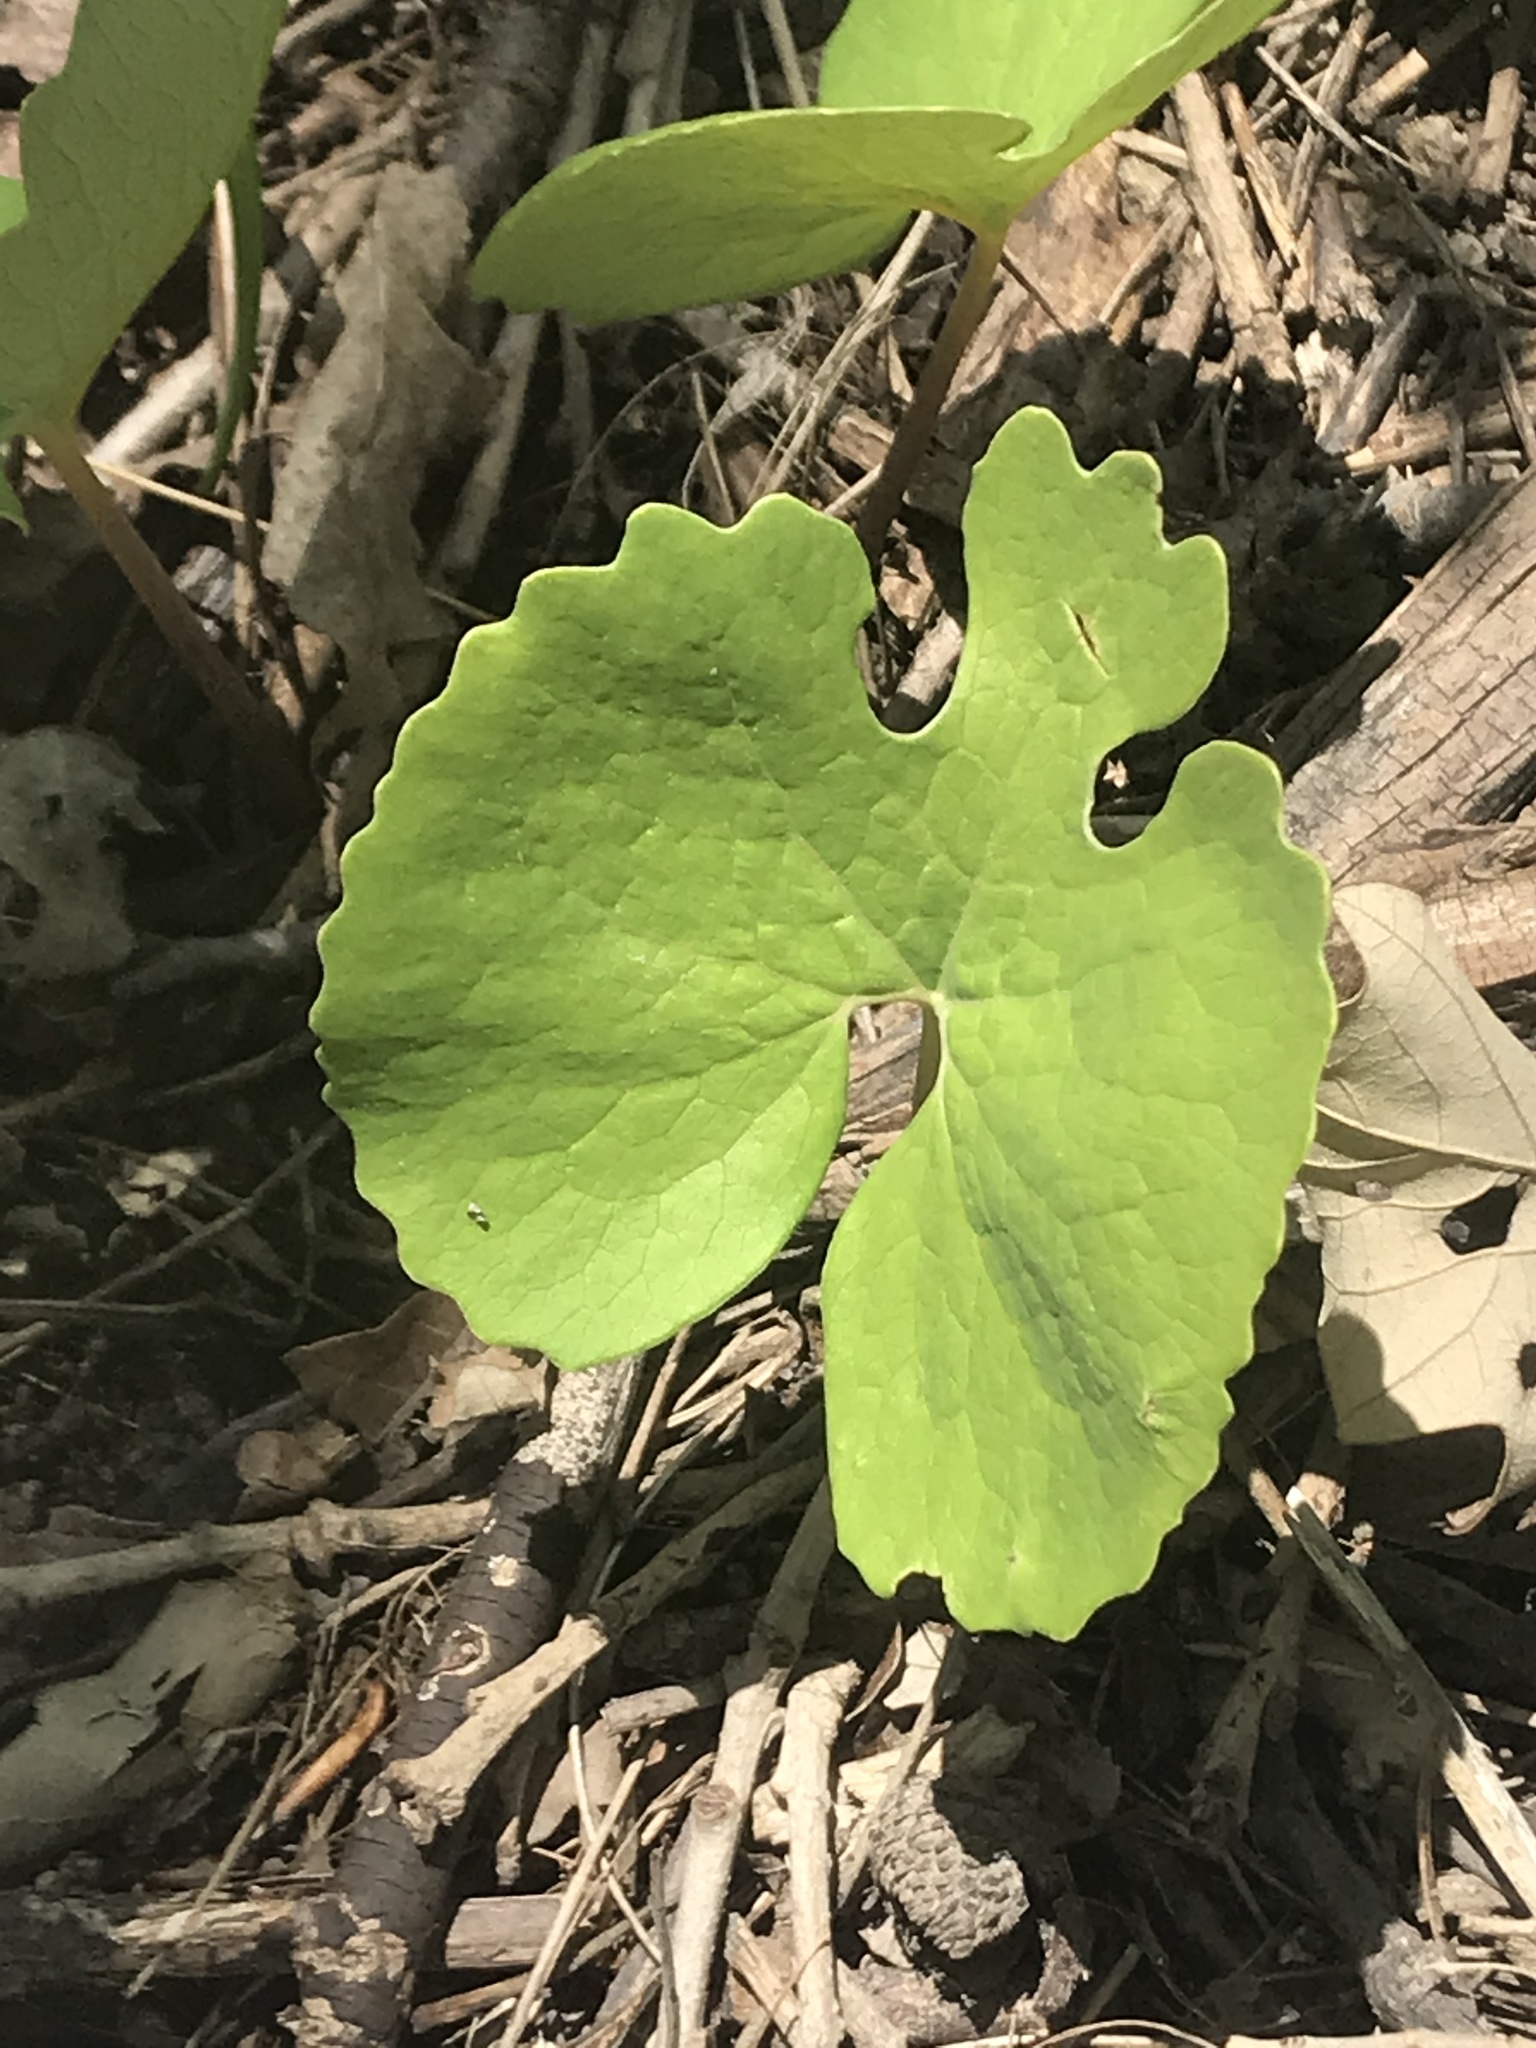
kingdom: Plantae
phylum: Tracheophyta
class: Magnoliopsida
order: Ranunculales
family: Papaveraceae
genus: Sanguinaria
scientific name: Sanguinaria canadensis
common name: Bloodroot
